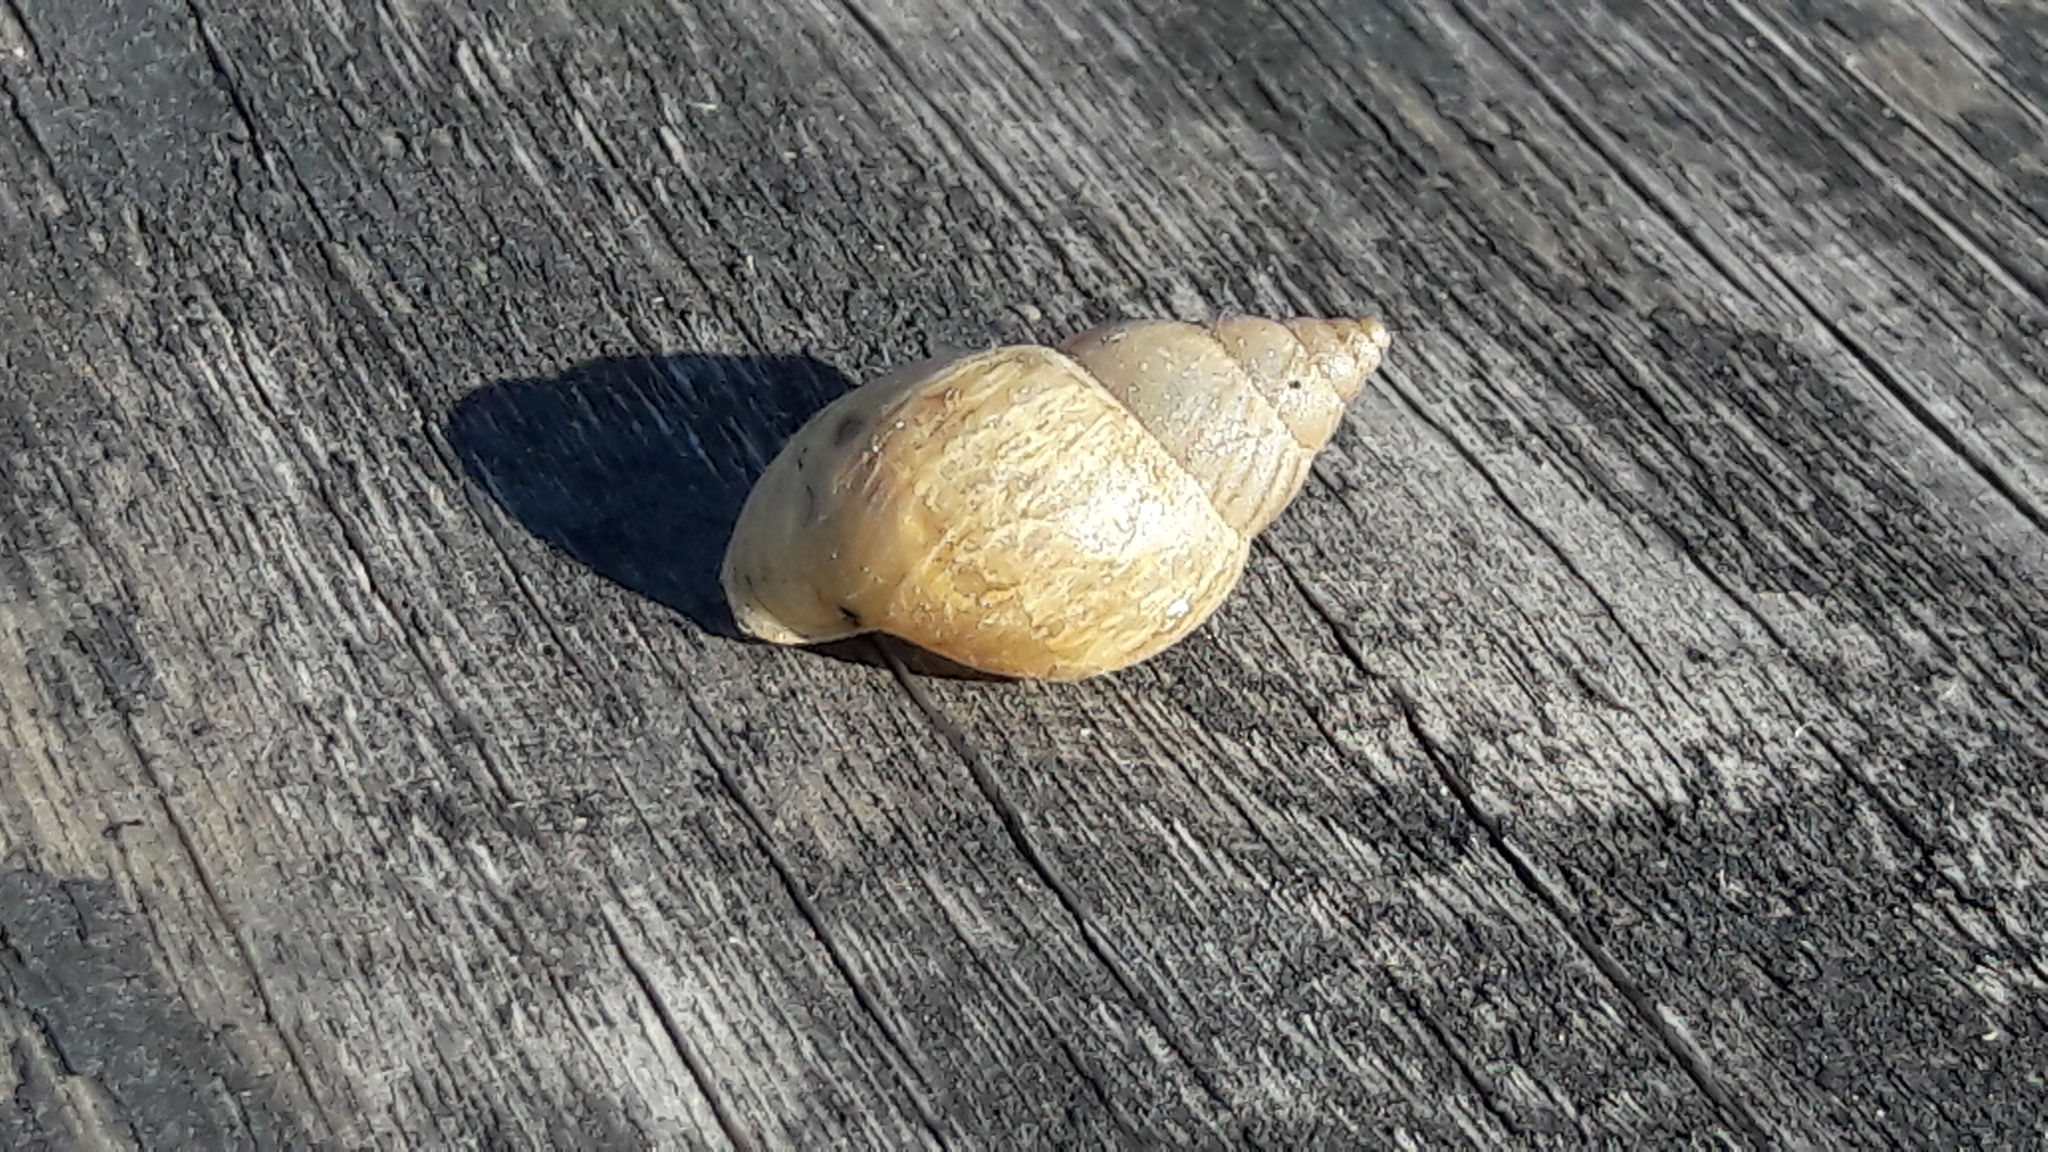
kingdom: Animalia
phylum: Mollusca
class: Gastropoda
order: Stylommatophora
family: Bulimulidae
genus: Bulimulus
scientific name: Bulimulus bonariensis
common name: Snail
